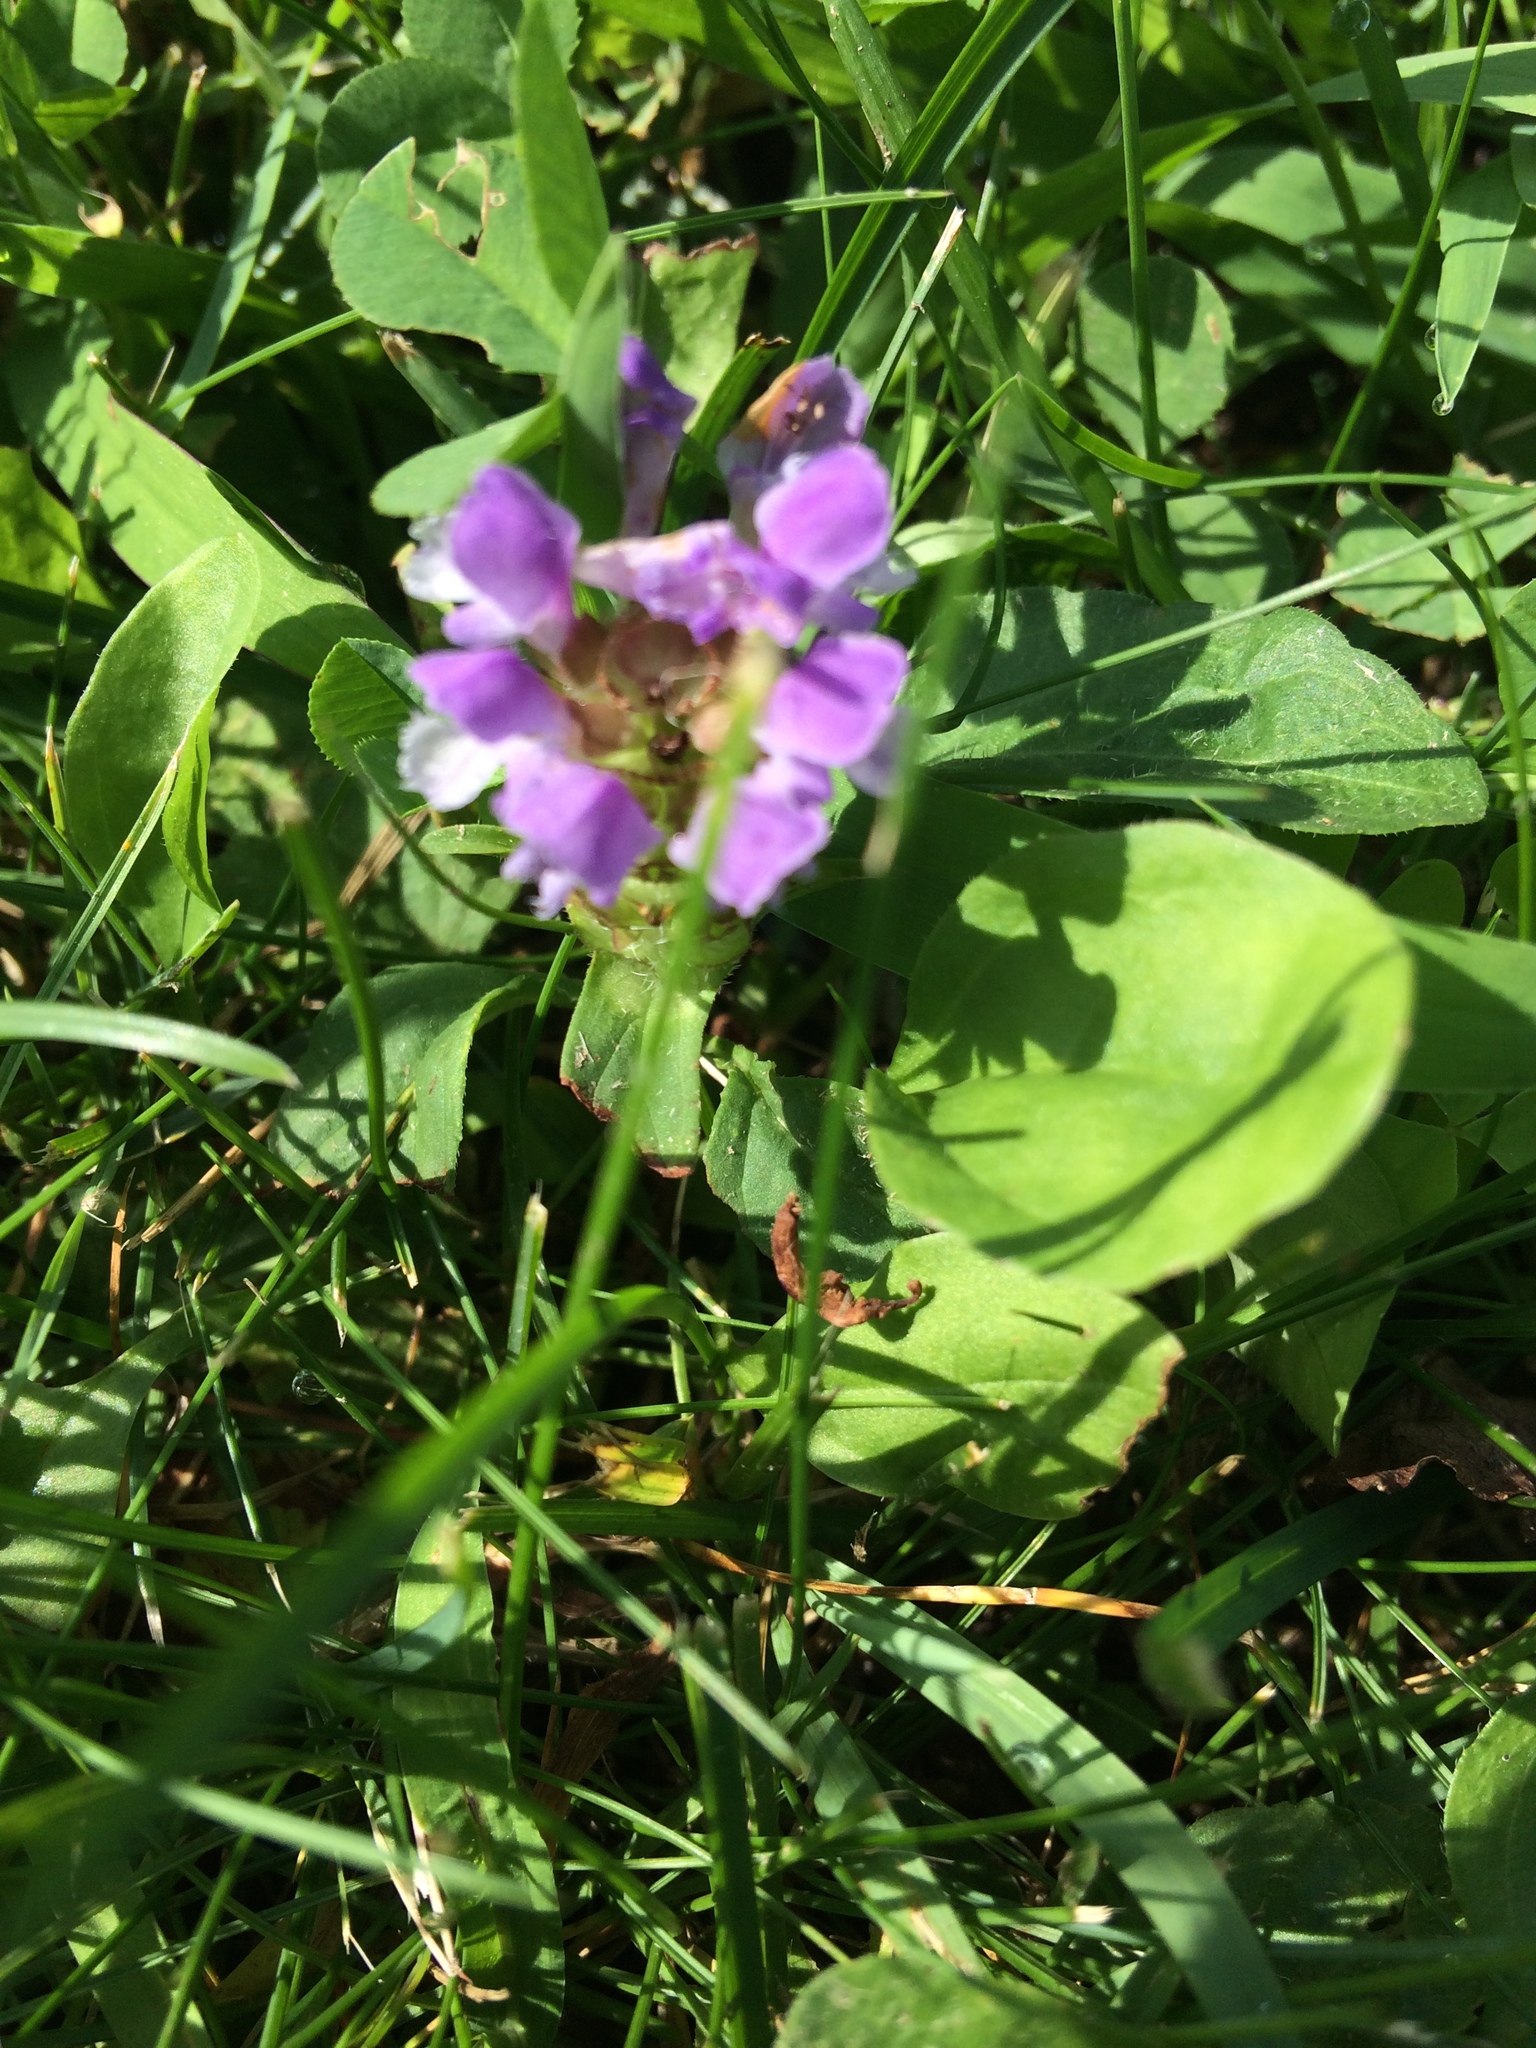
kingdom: Plantae
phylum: Tracheophyta
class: Magnoliopsida
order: Lamiales
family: Lamiaceae
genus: Prunella
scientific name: Prunella vulgaris
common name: Heal-all
